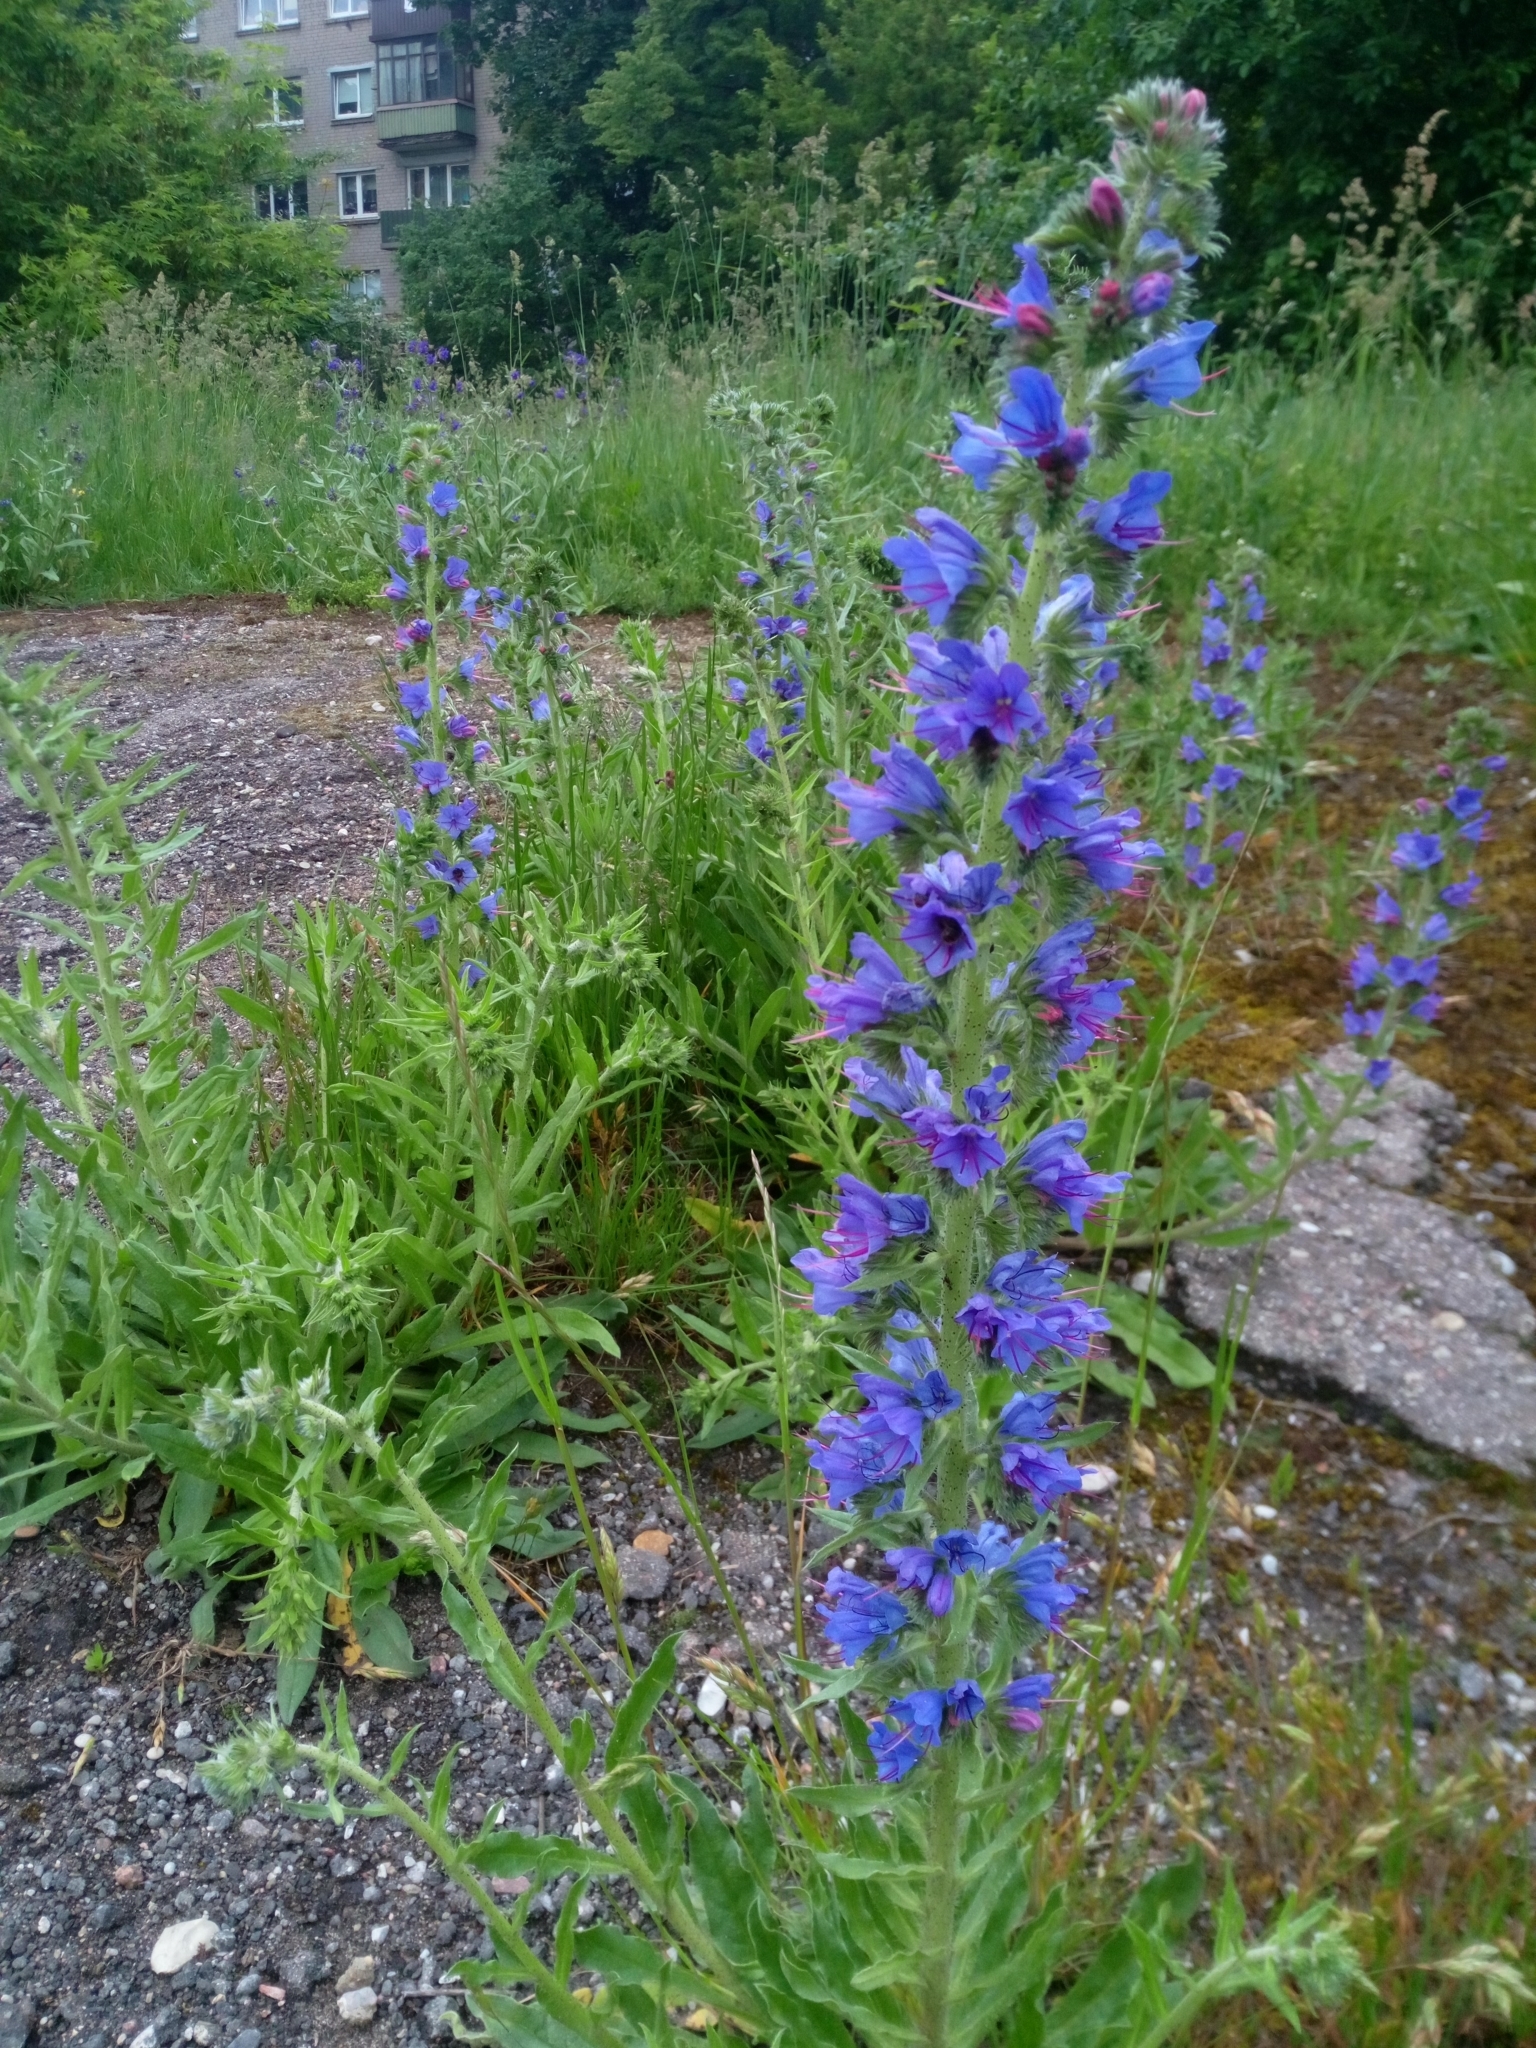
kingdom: Plantae
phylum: Tracheophyta
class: Magnoliopsida
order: Boraginales
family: Boraginaceae
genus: Echium
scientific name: Echium vulgare
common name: Common viper's bugloss
